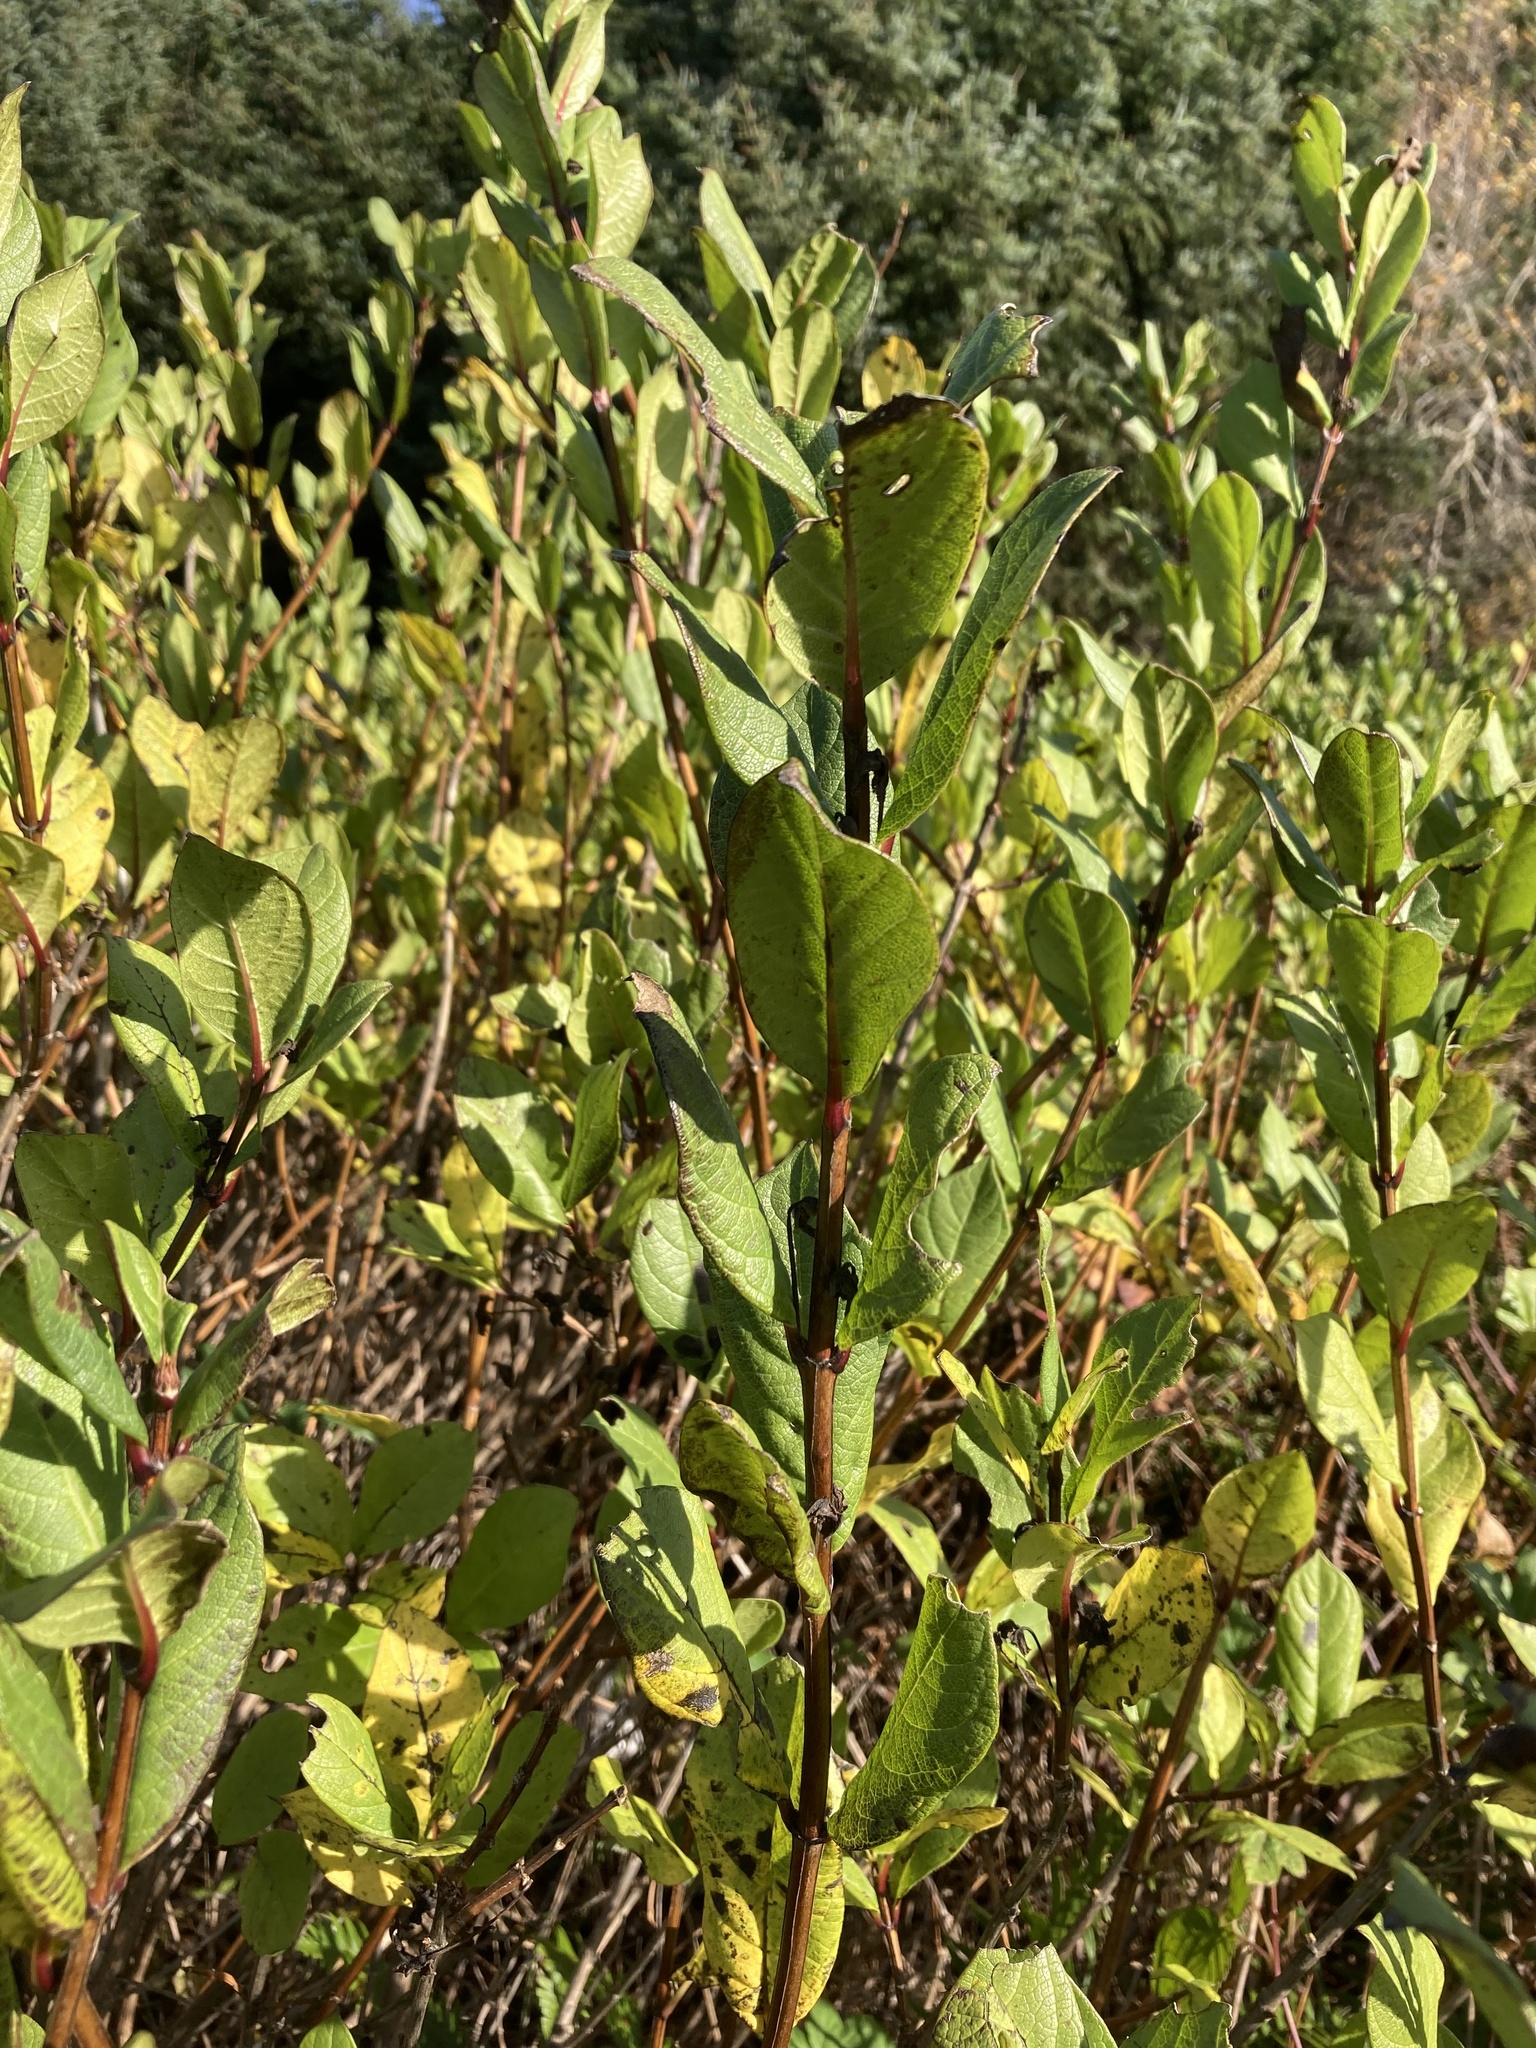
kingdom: Plantae
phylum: Tracheophyta
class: Magnoliopsida
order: Dipsacales
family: Caprifoliaceae
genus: Lonicera
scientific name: Lonicera involucrata
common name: Californian honeysuckle
